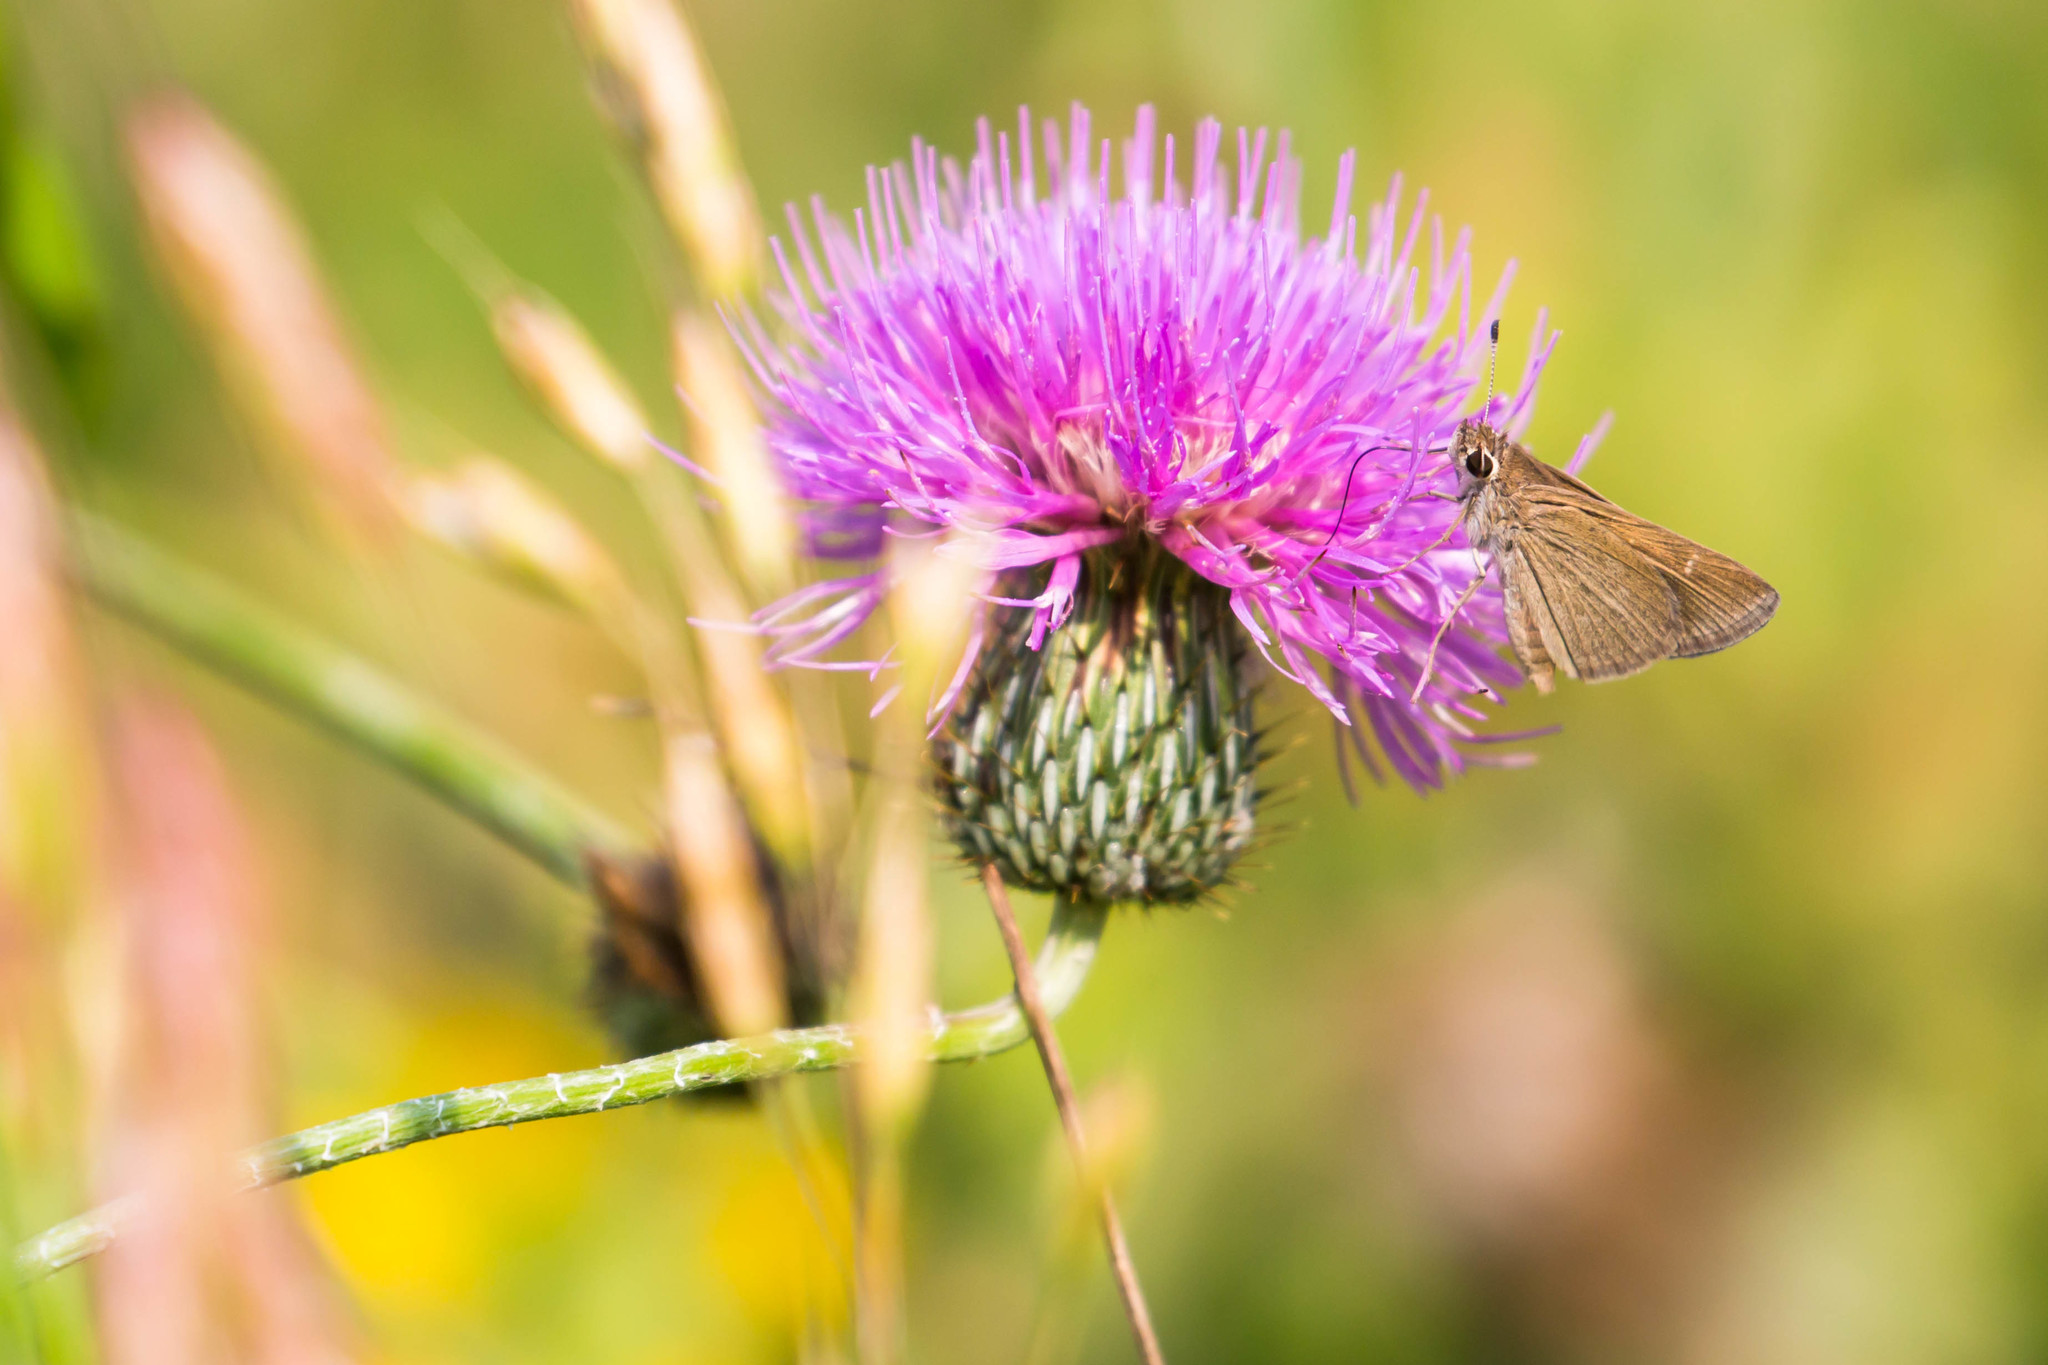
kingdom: Animalia
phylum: Arthropoda
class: Insecta
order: Lepidoptera
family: Hesperiidae
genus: Lerodea
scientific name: Lerodea eufala
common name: Eufala skipper
